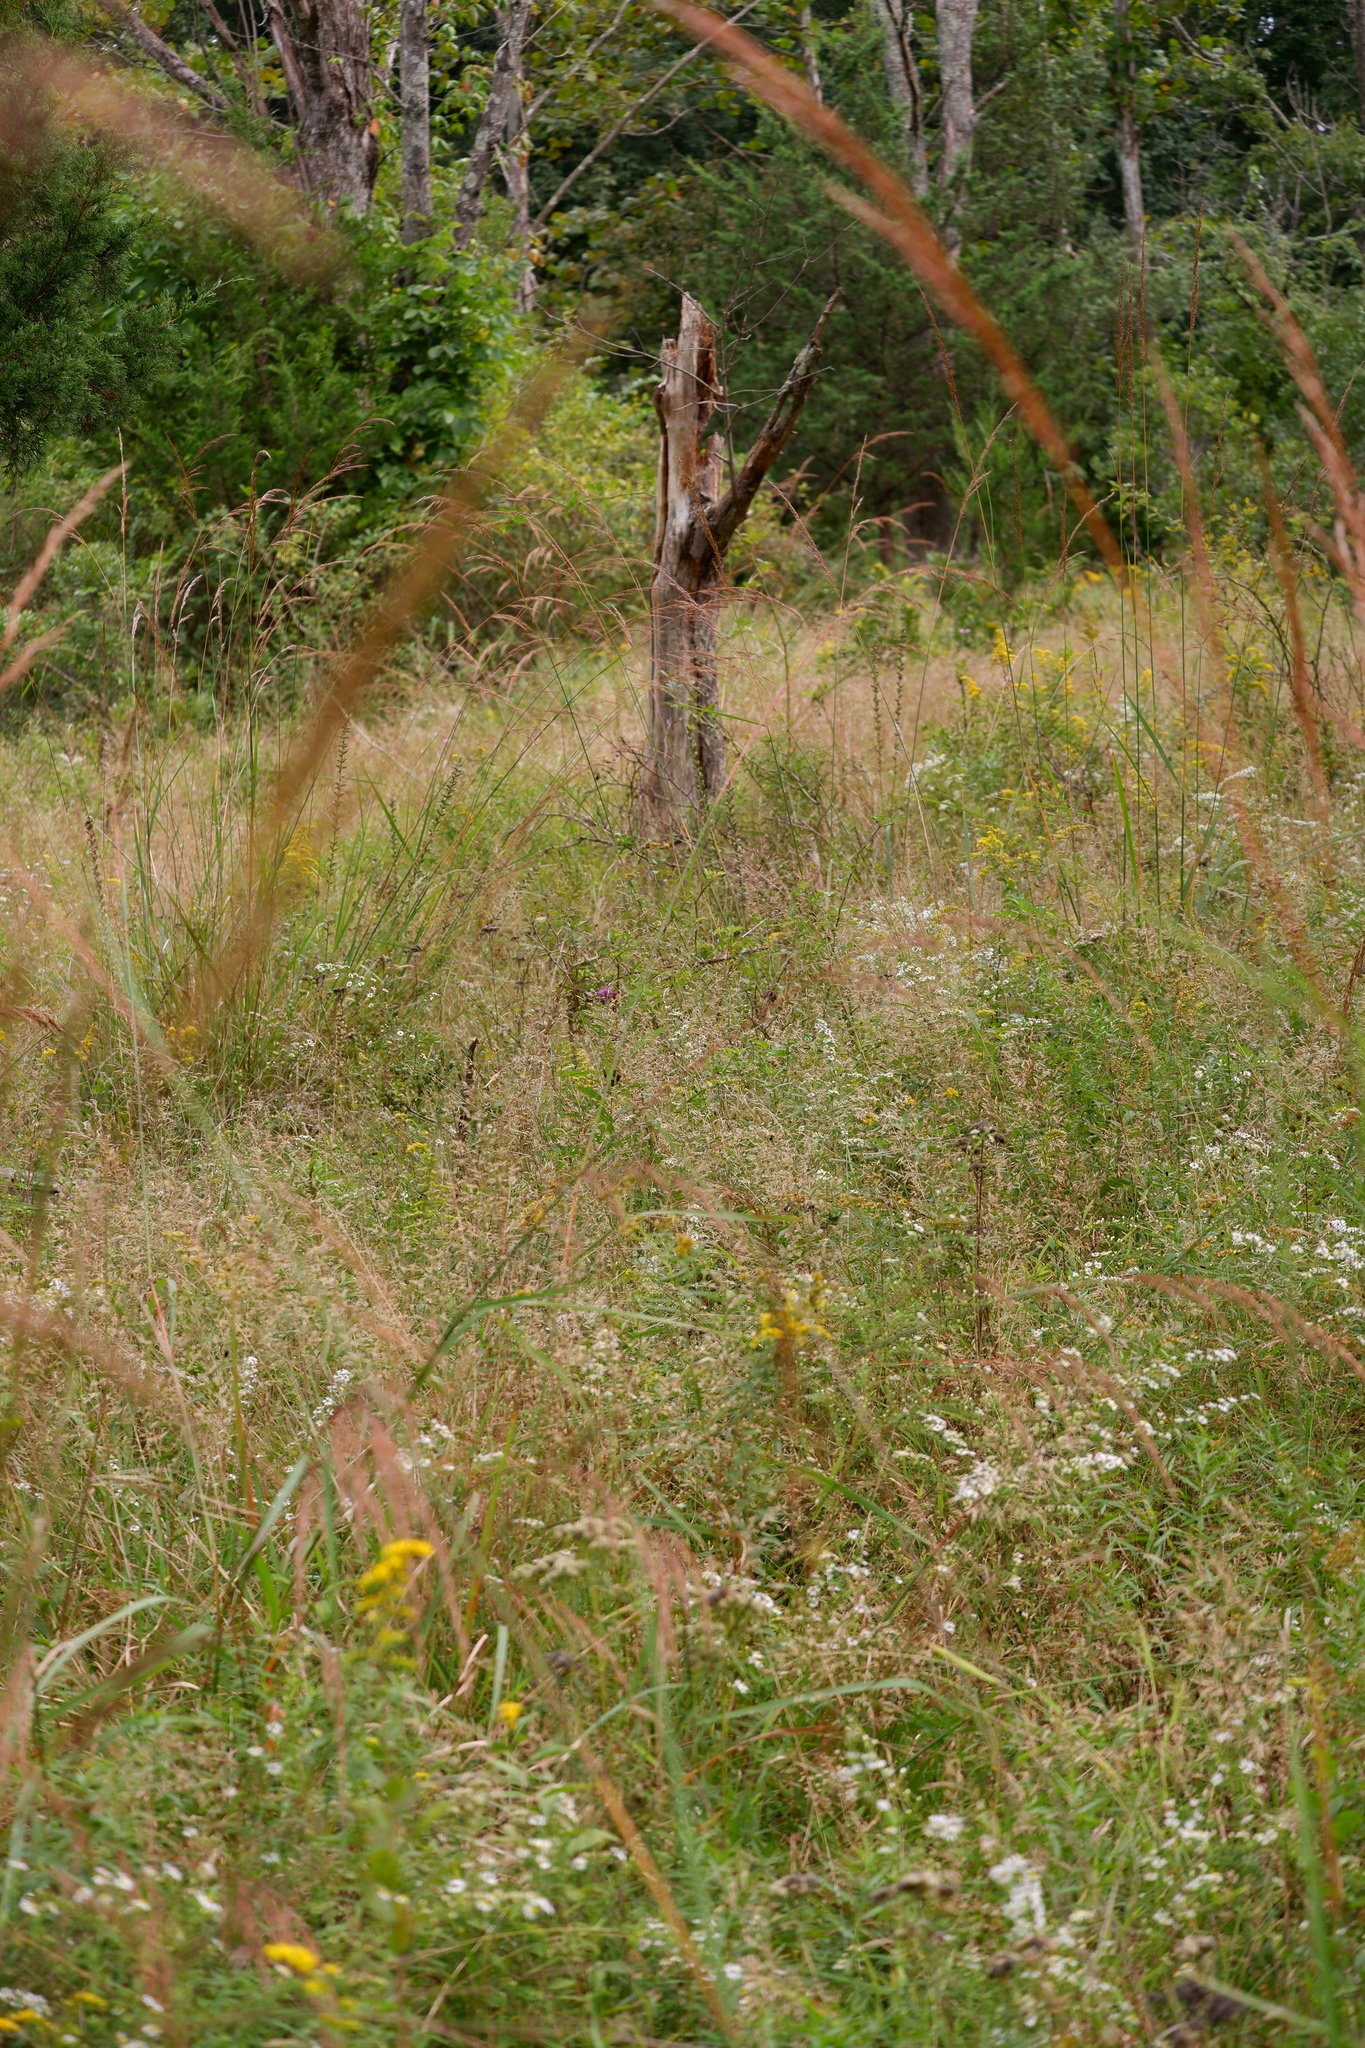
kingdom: Plantae
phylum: Tracheophyta
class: Liliopsida
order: Poales
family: Poaceae
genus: Sorghastrum
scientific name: Sorghastrum nutans
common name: Indian grass
